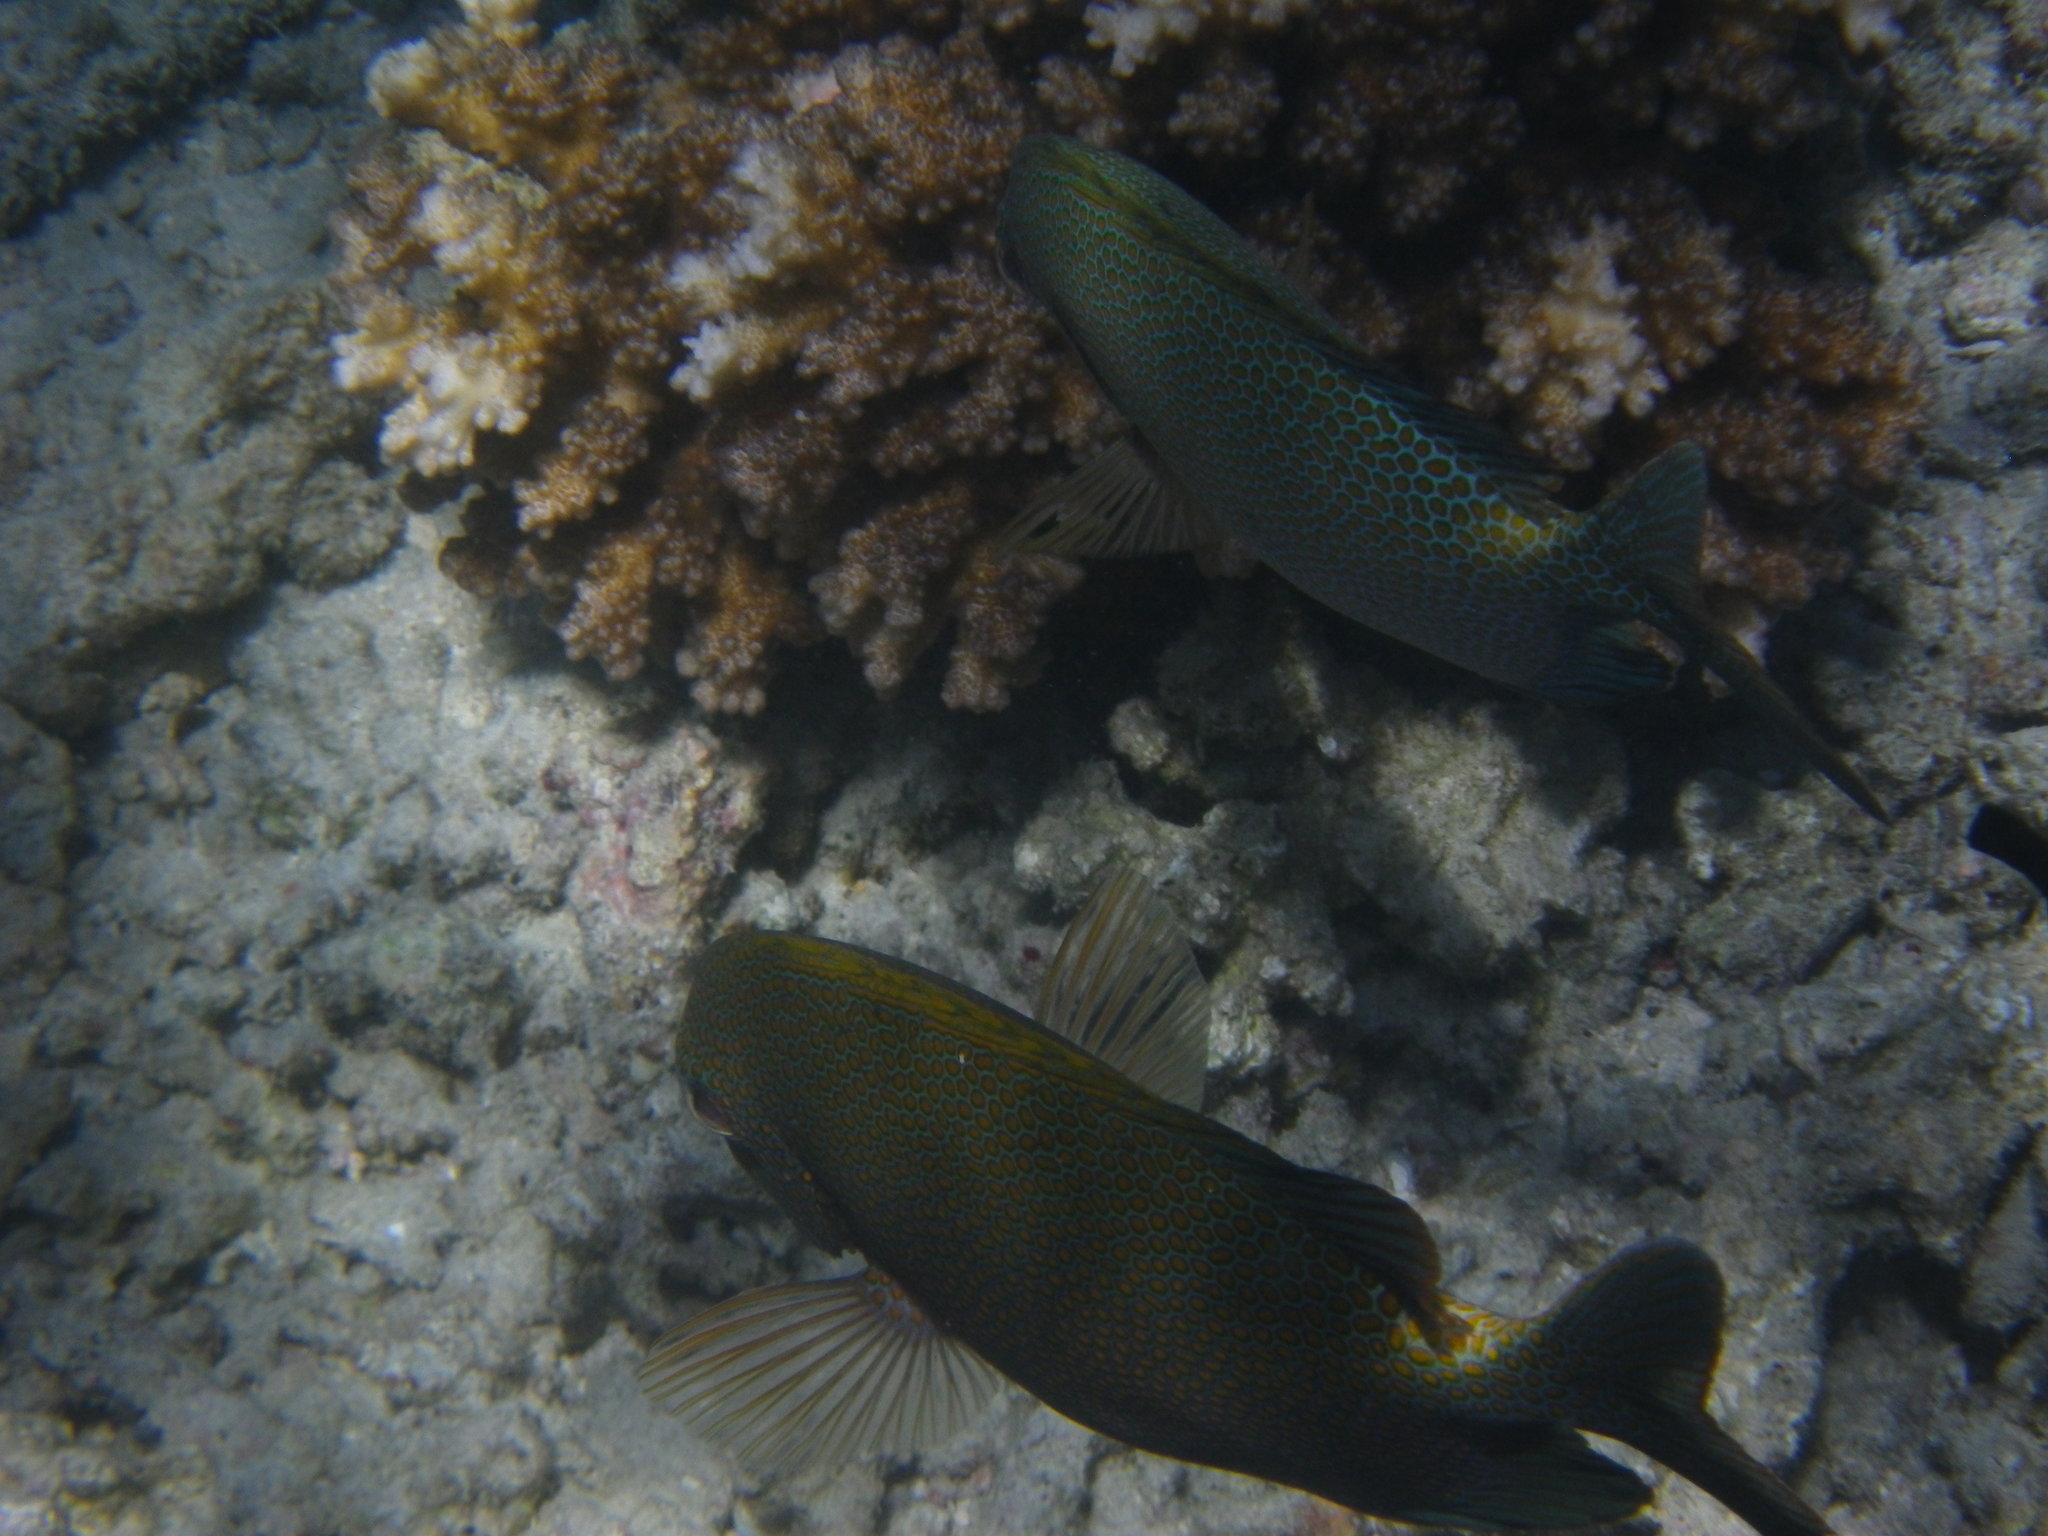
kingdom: Animalia
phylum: Chordata
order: Perciformes
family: Siganidae
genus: Siganus
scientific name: Siganus punctatus
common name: Gold-spotted rabbitfish
